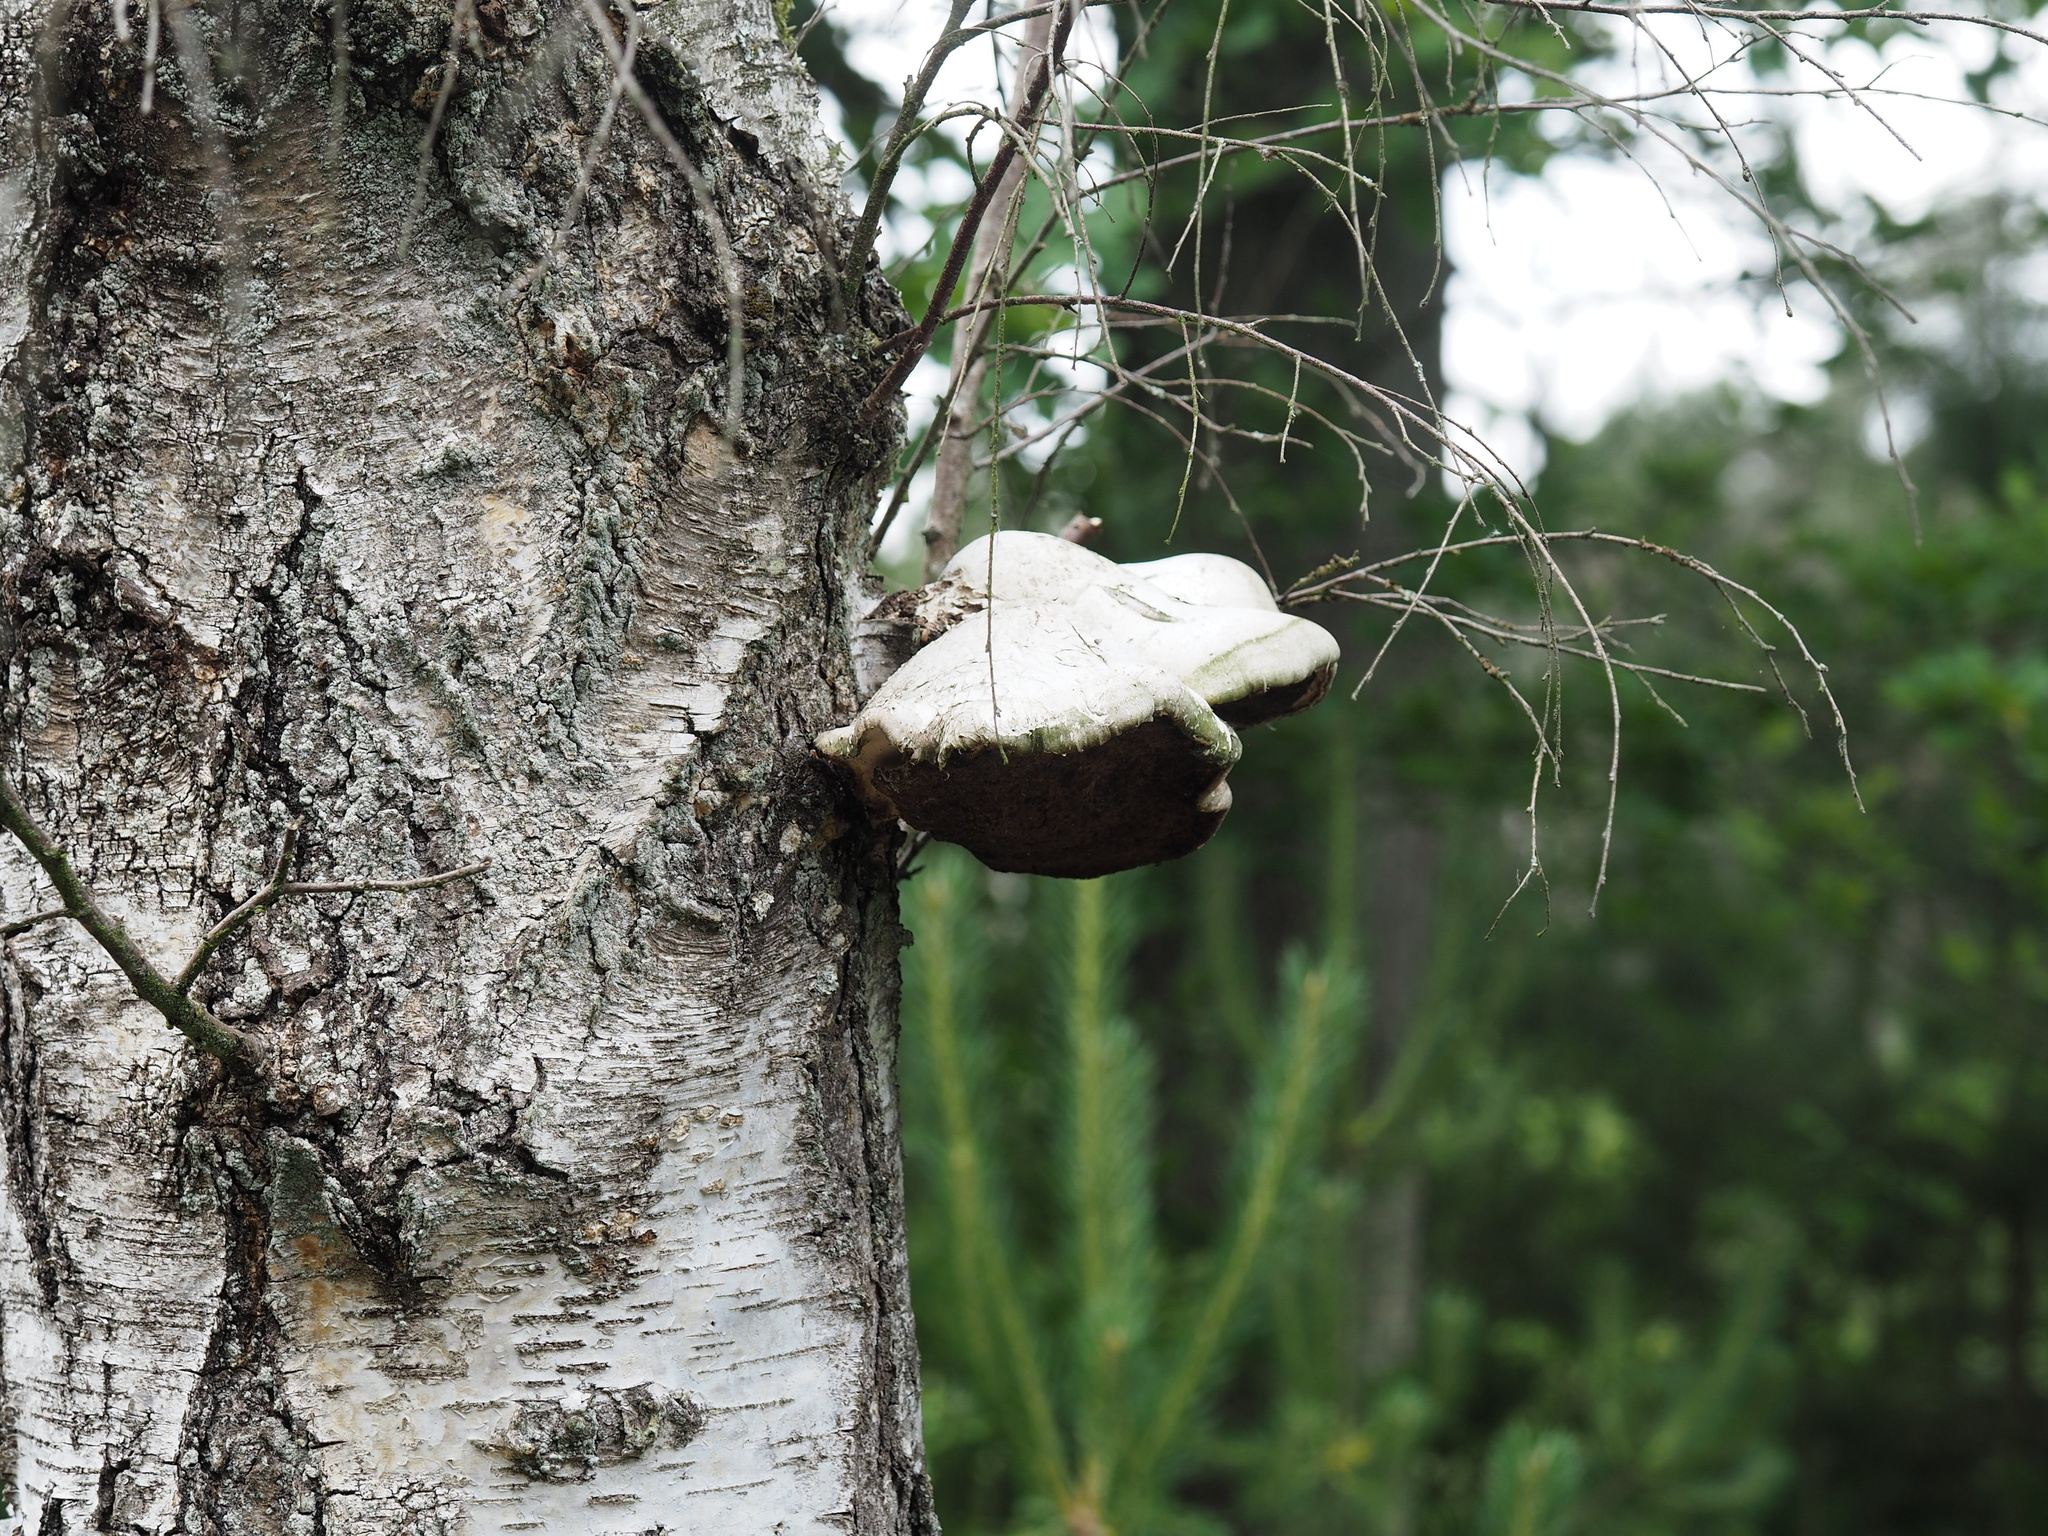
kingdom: Fungi
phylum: Basidiomycota
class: Agaricomycetes
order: Polyporales
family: Fomitopsidaceae
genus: Fomitopsis
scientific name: Fomitopsis betulina
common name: Birch polypore
